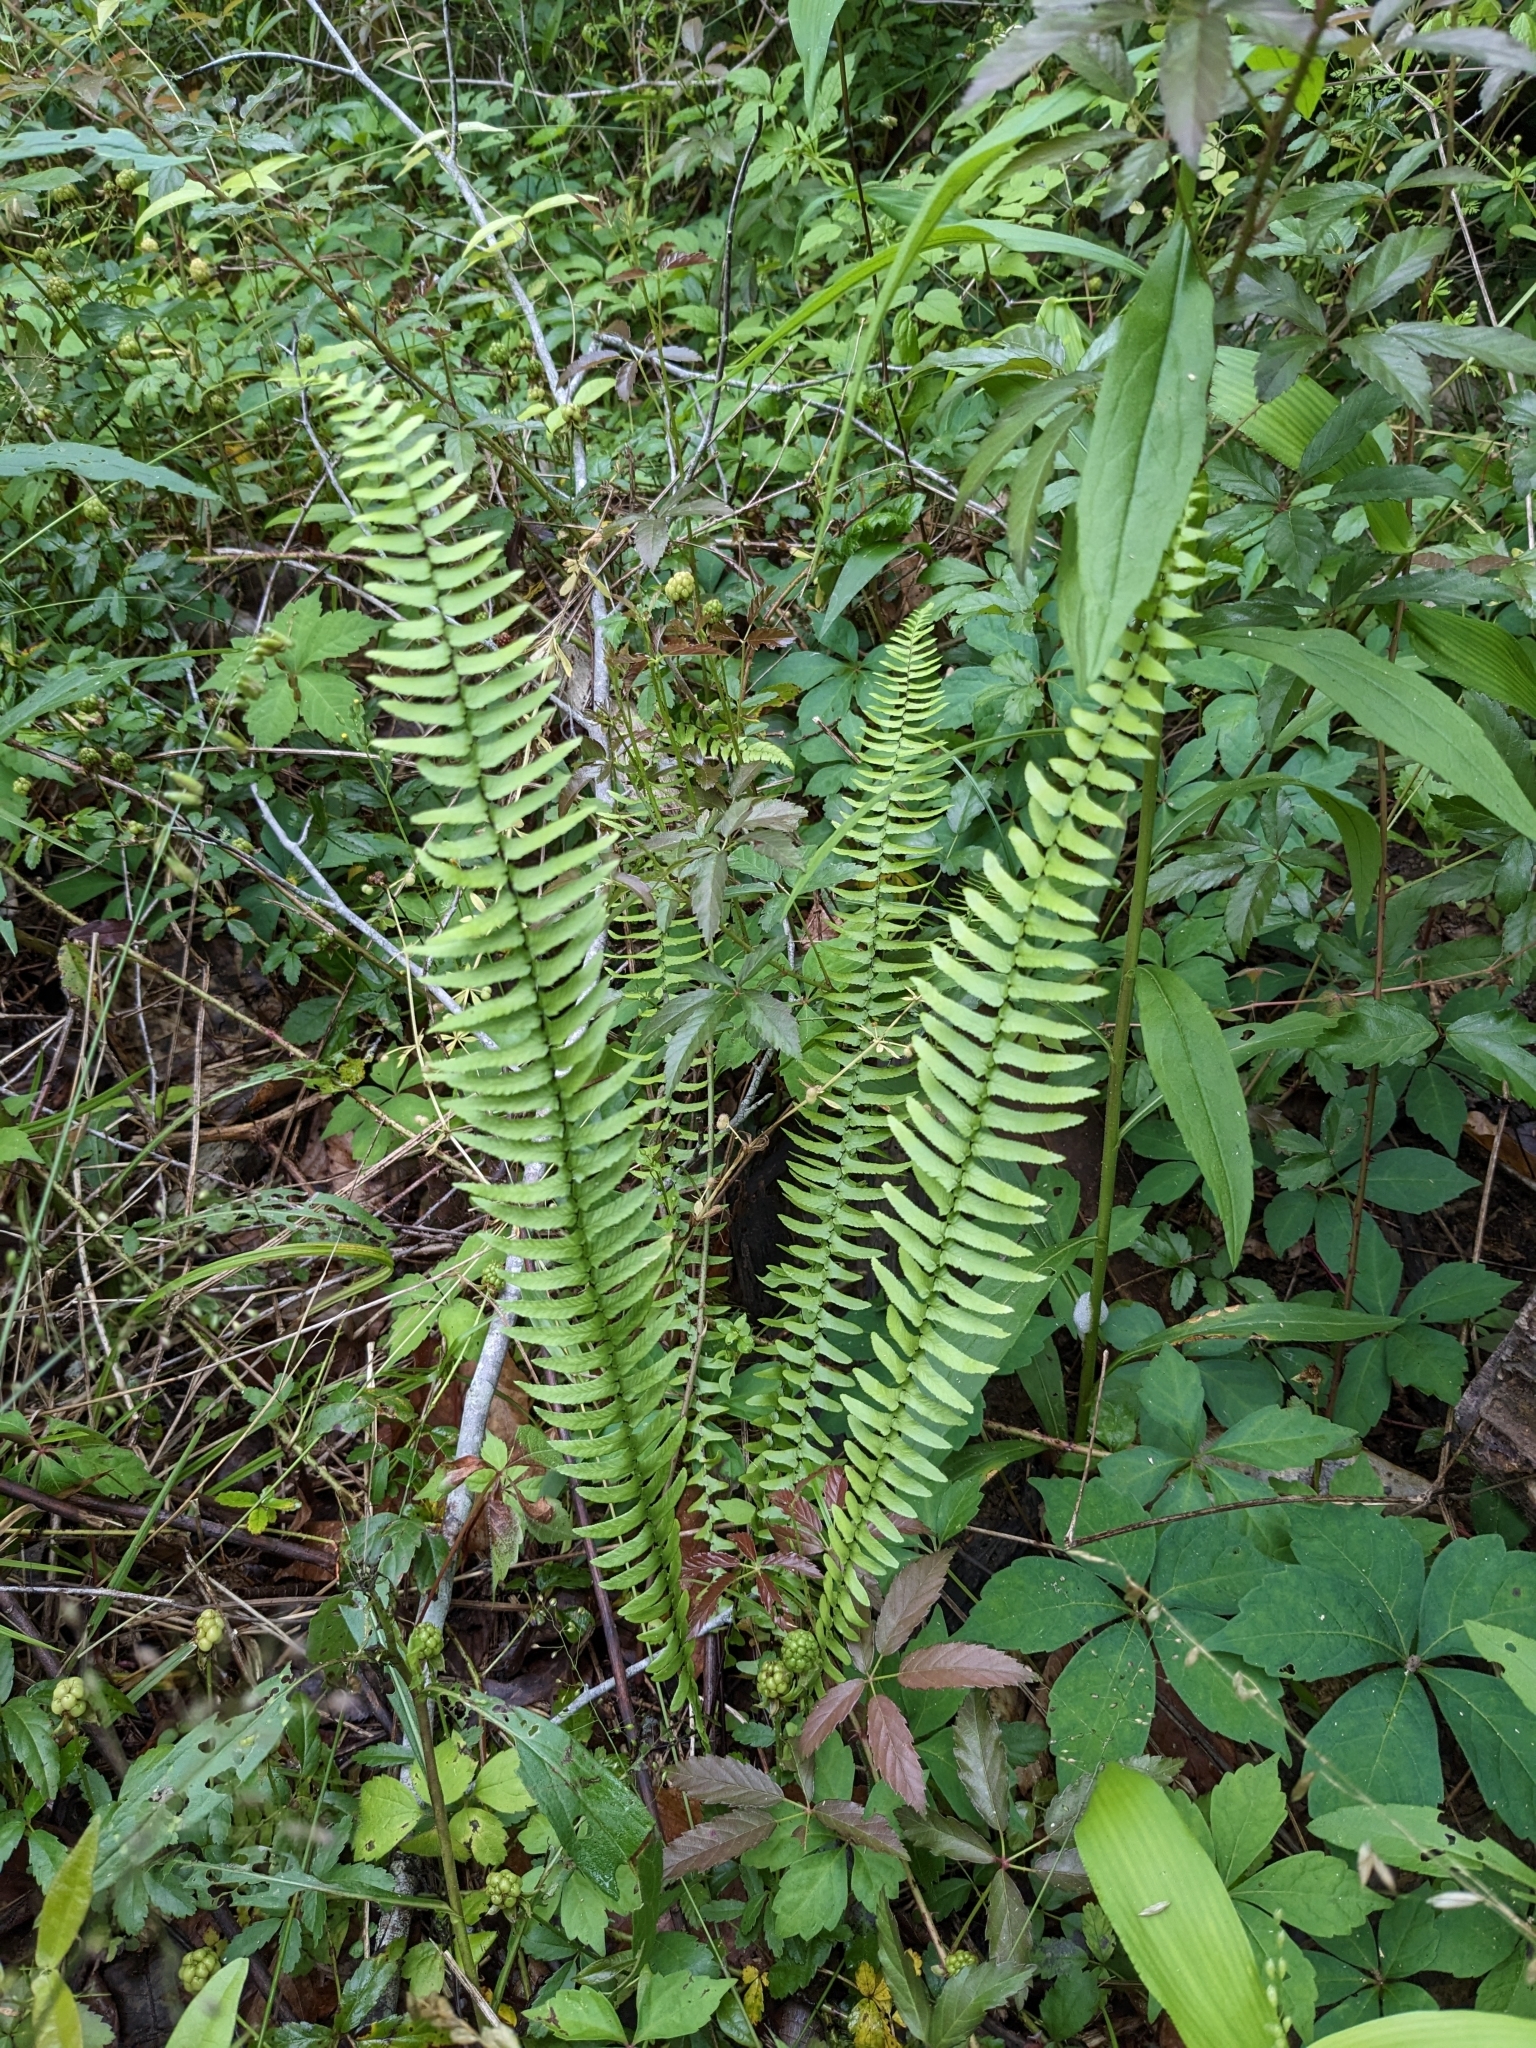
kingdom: Plantae
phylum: Tracheophyta
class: Polypodiopsida
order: Polypodiales
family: Aspleniaceae
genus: Asplenium
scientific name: Asplenium platyneuron
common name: Ebony spleenwort
